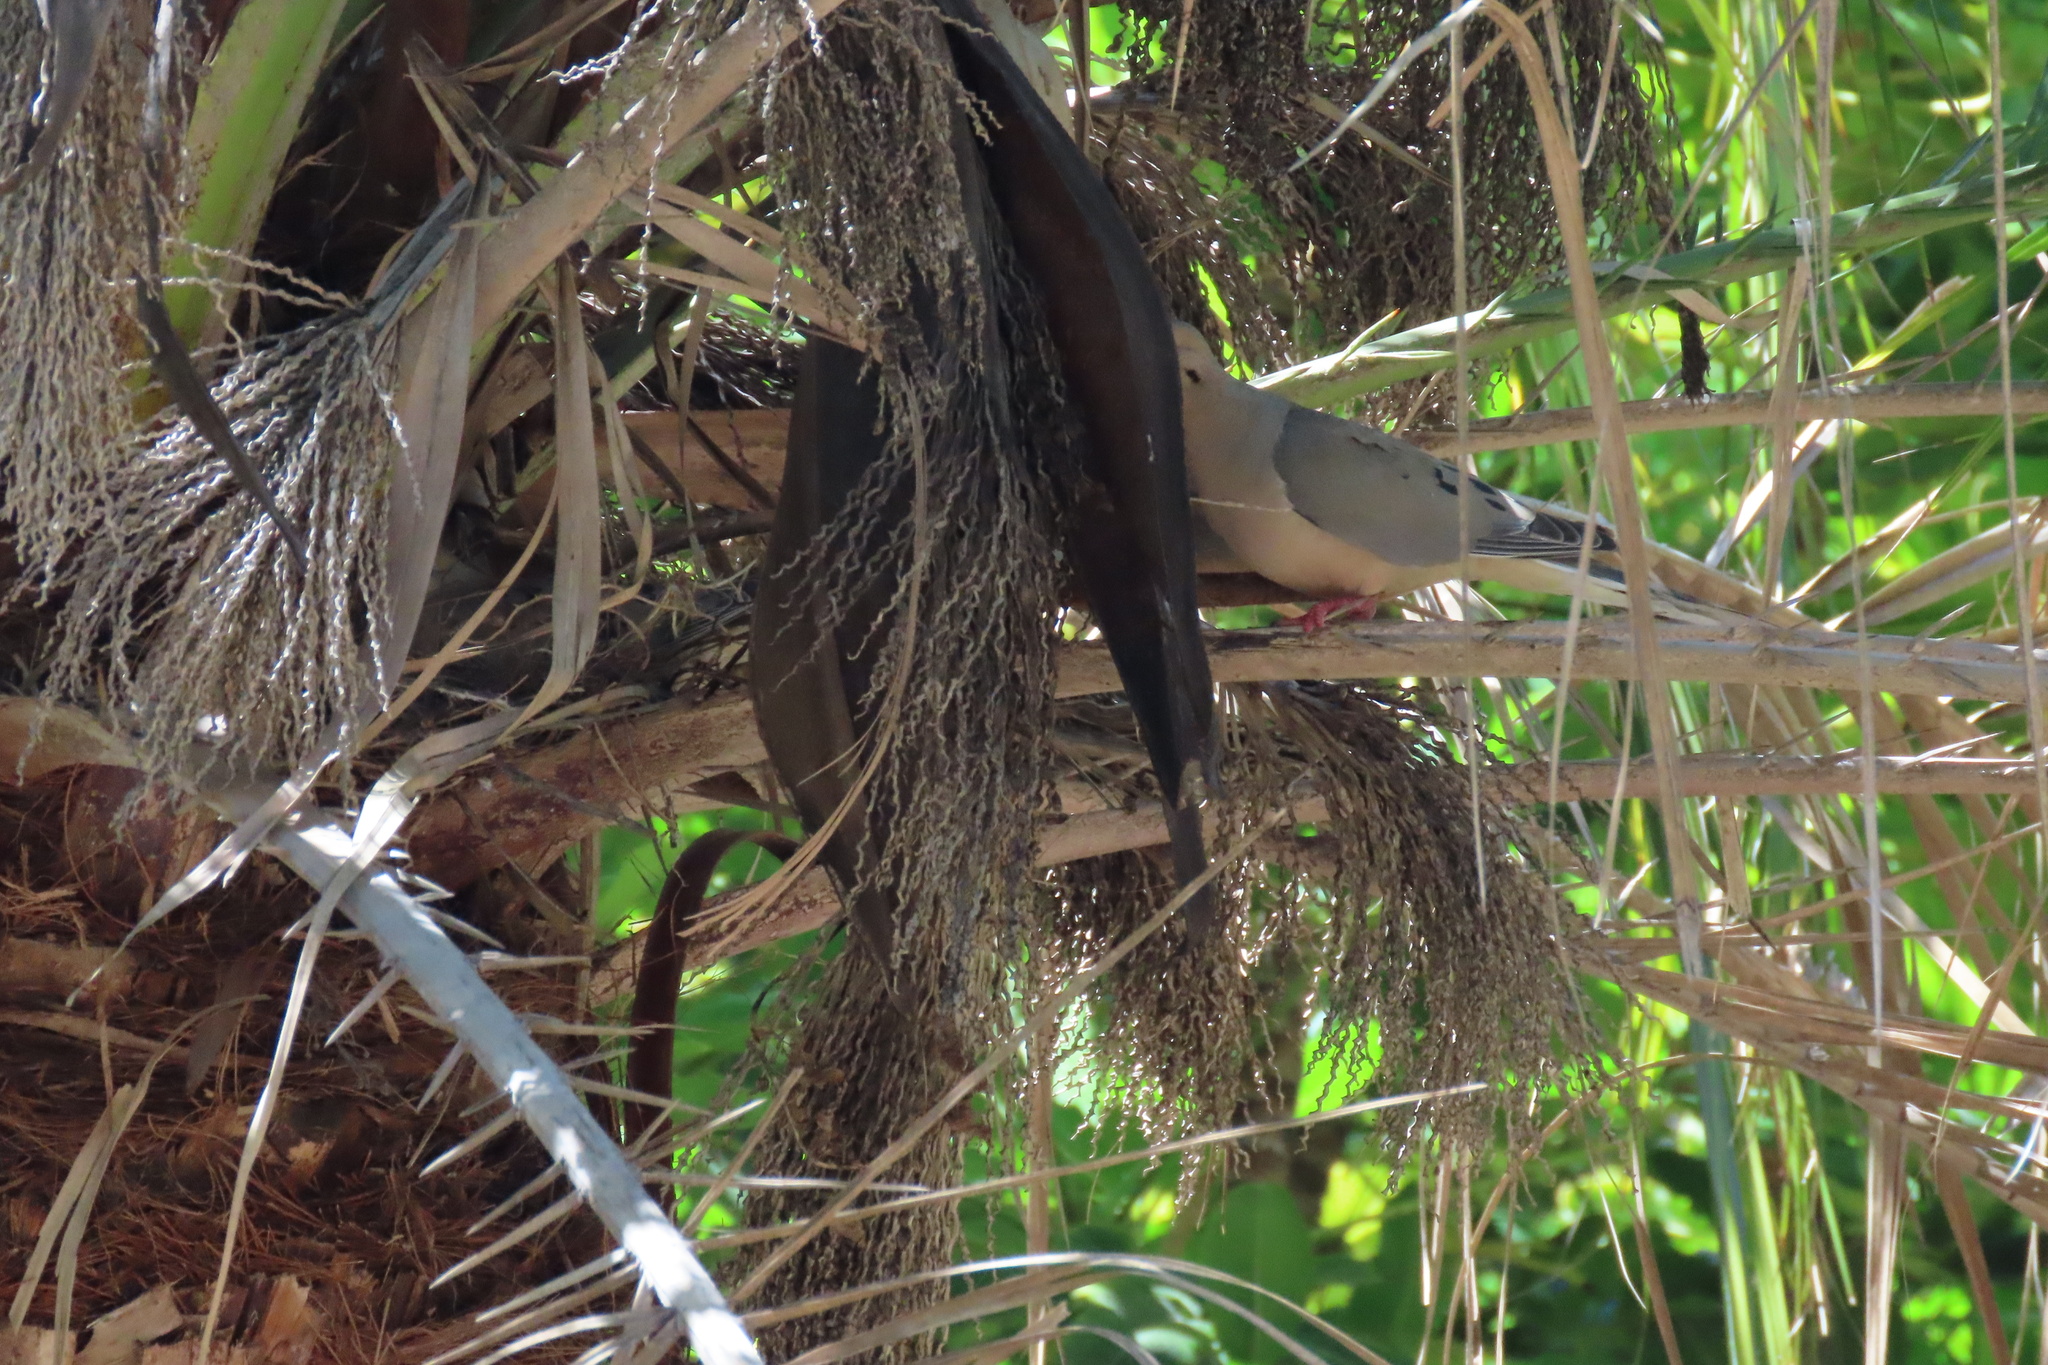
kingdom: Animalia
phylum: Chordata
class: Aves
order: Columbiformes
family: Columbidae
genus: Zenaida
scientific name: Zenaida macroura
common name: Mourning dove
